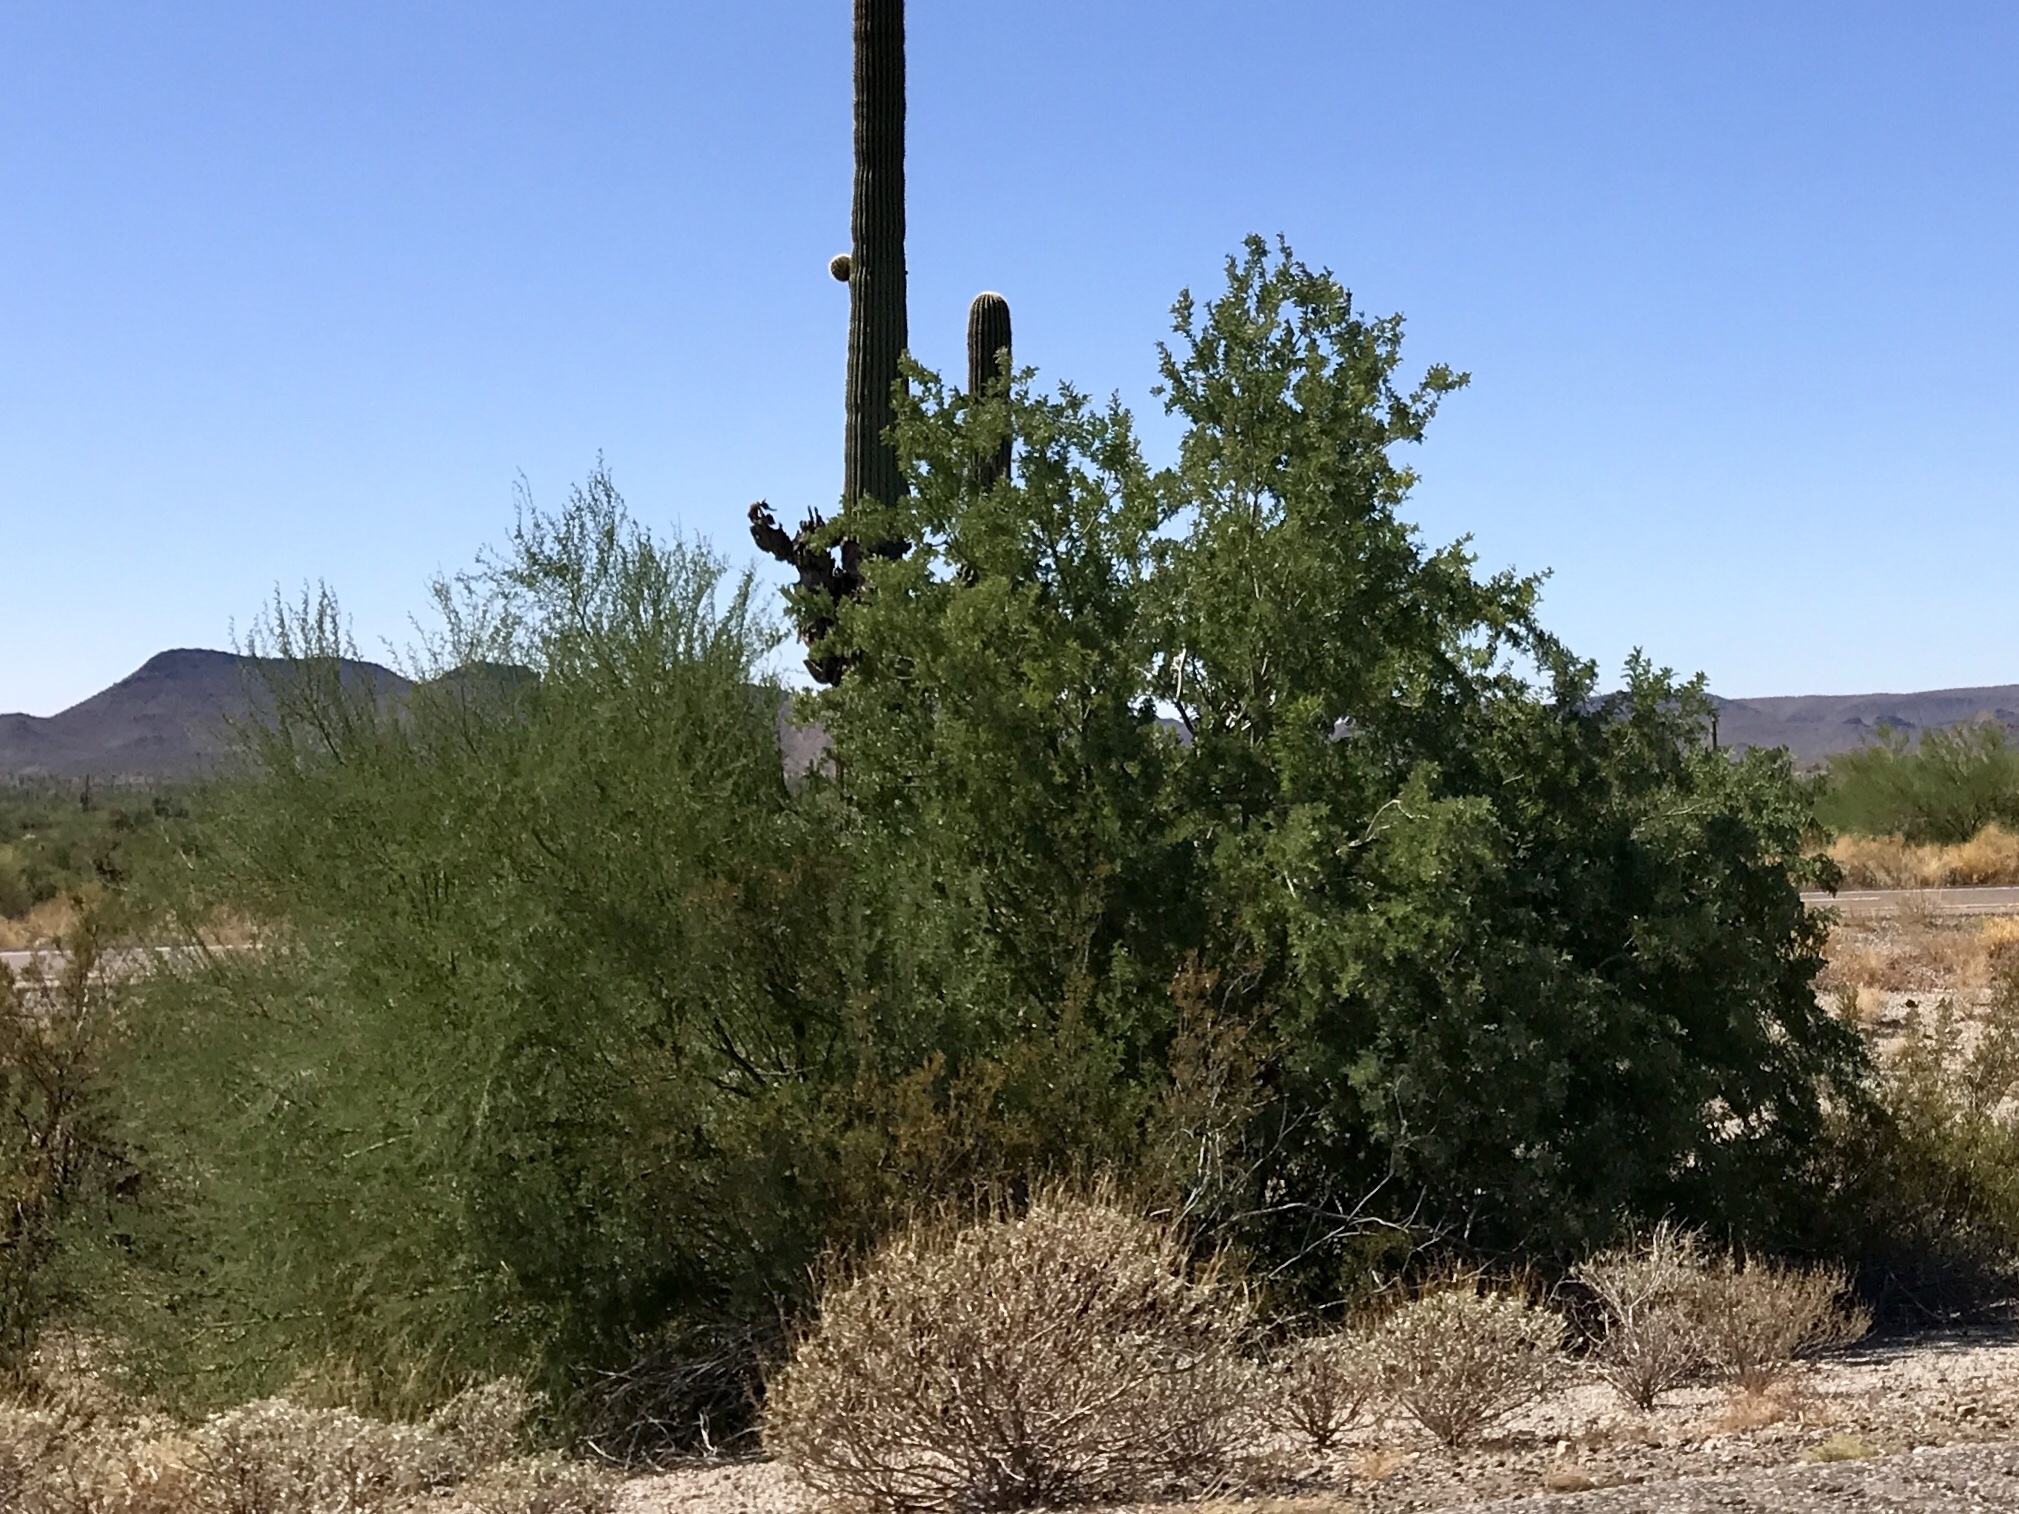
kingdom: Plantae
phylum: Tracheophyta
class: Magnoliopsida
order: Fabales
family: Fabaceae
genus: Olneya
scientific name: Olneya tesota
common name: Desert ironwood
